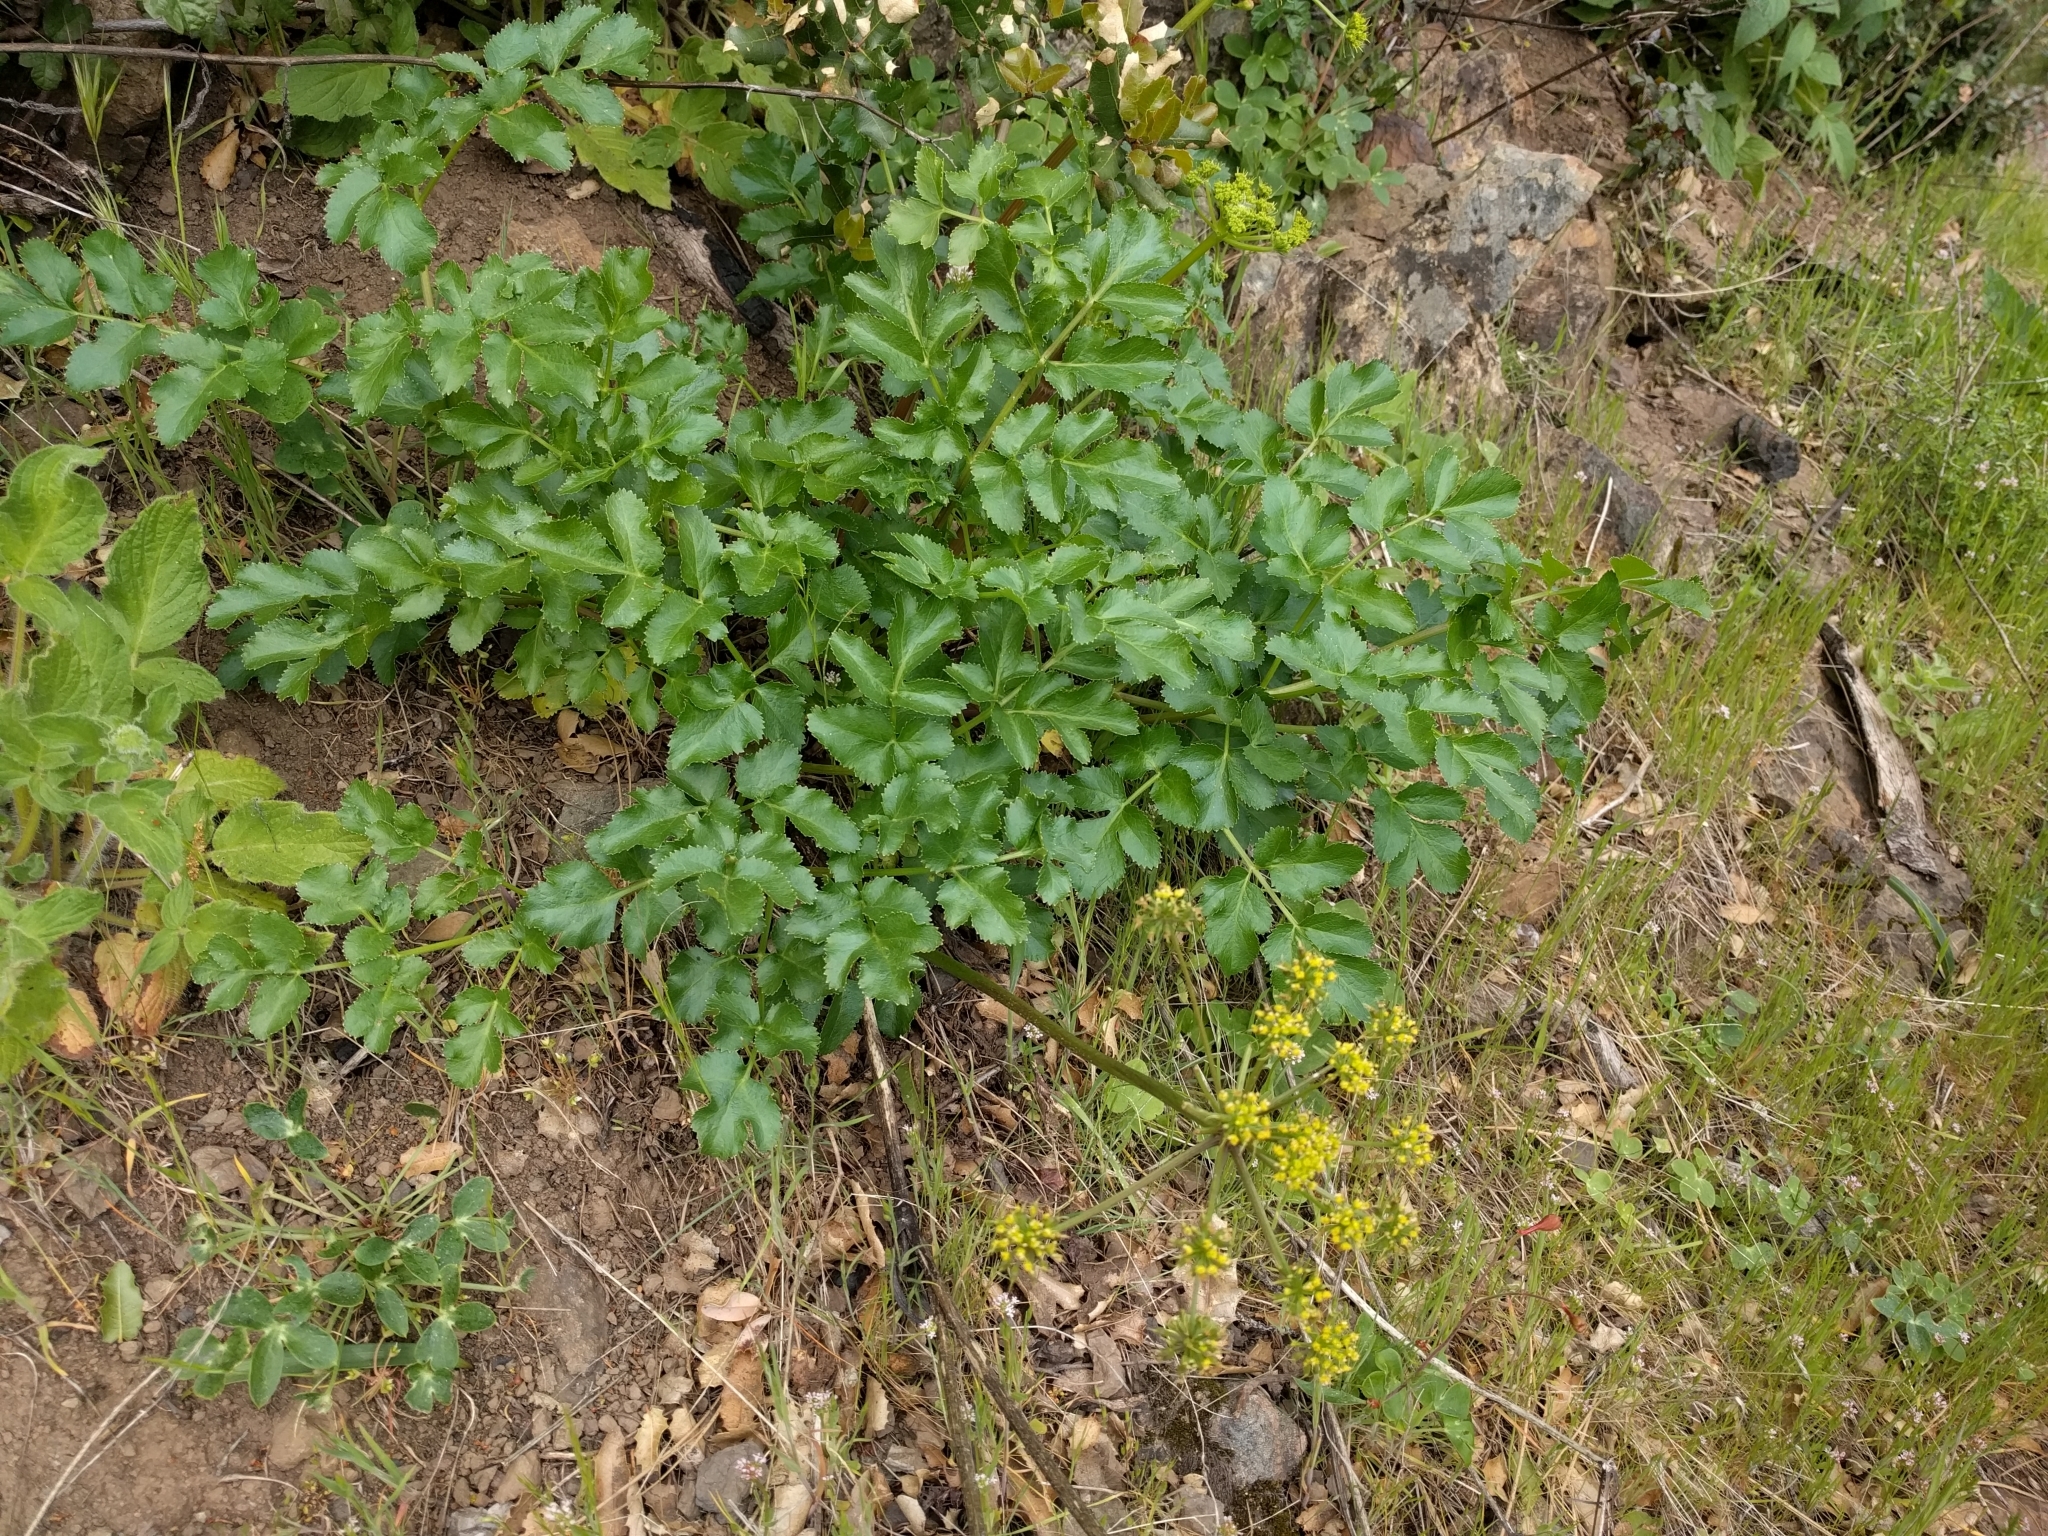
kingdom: Plantae
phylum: Tracheophyta
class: Magnoliopsida
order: Apiales
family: Apiaceae
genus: Tauschia
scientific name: Tauschia hartwegii
